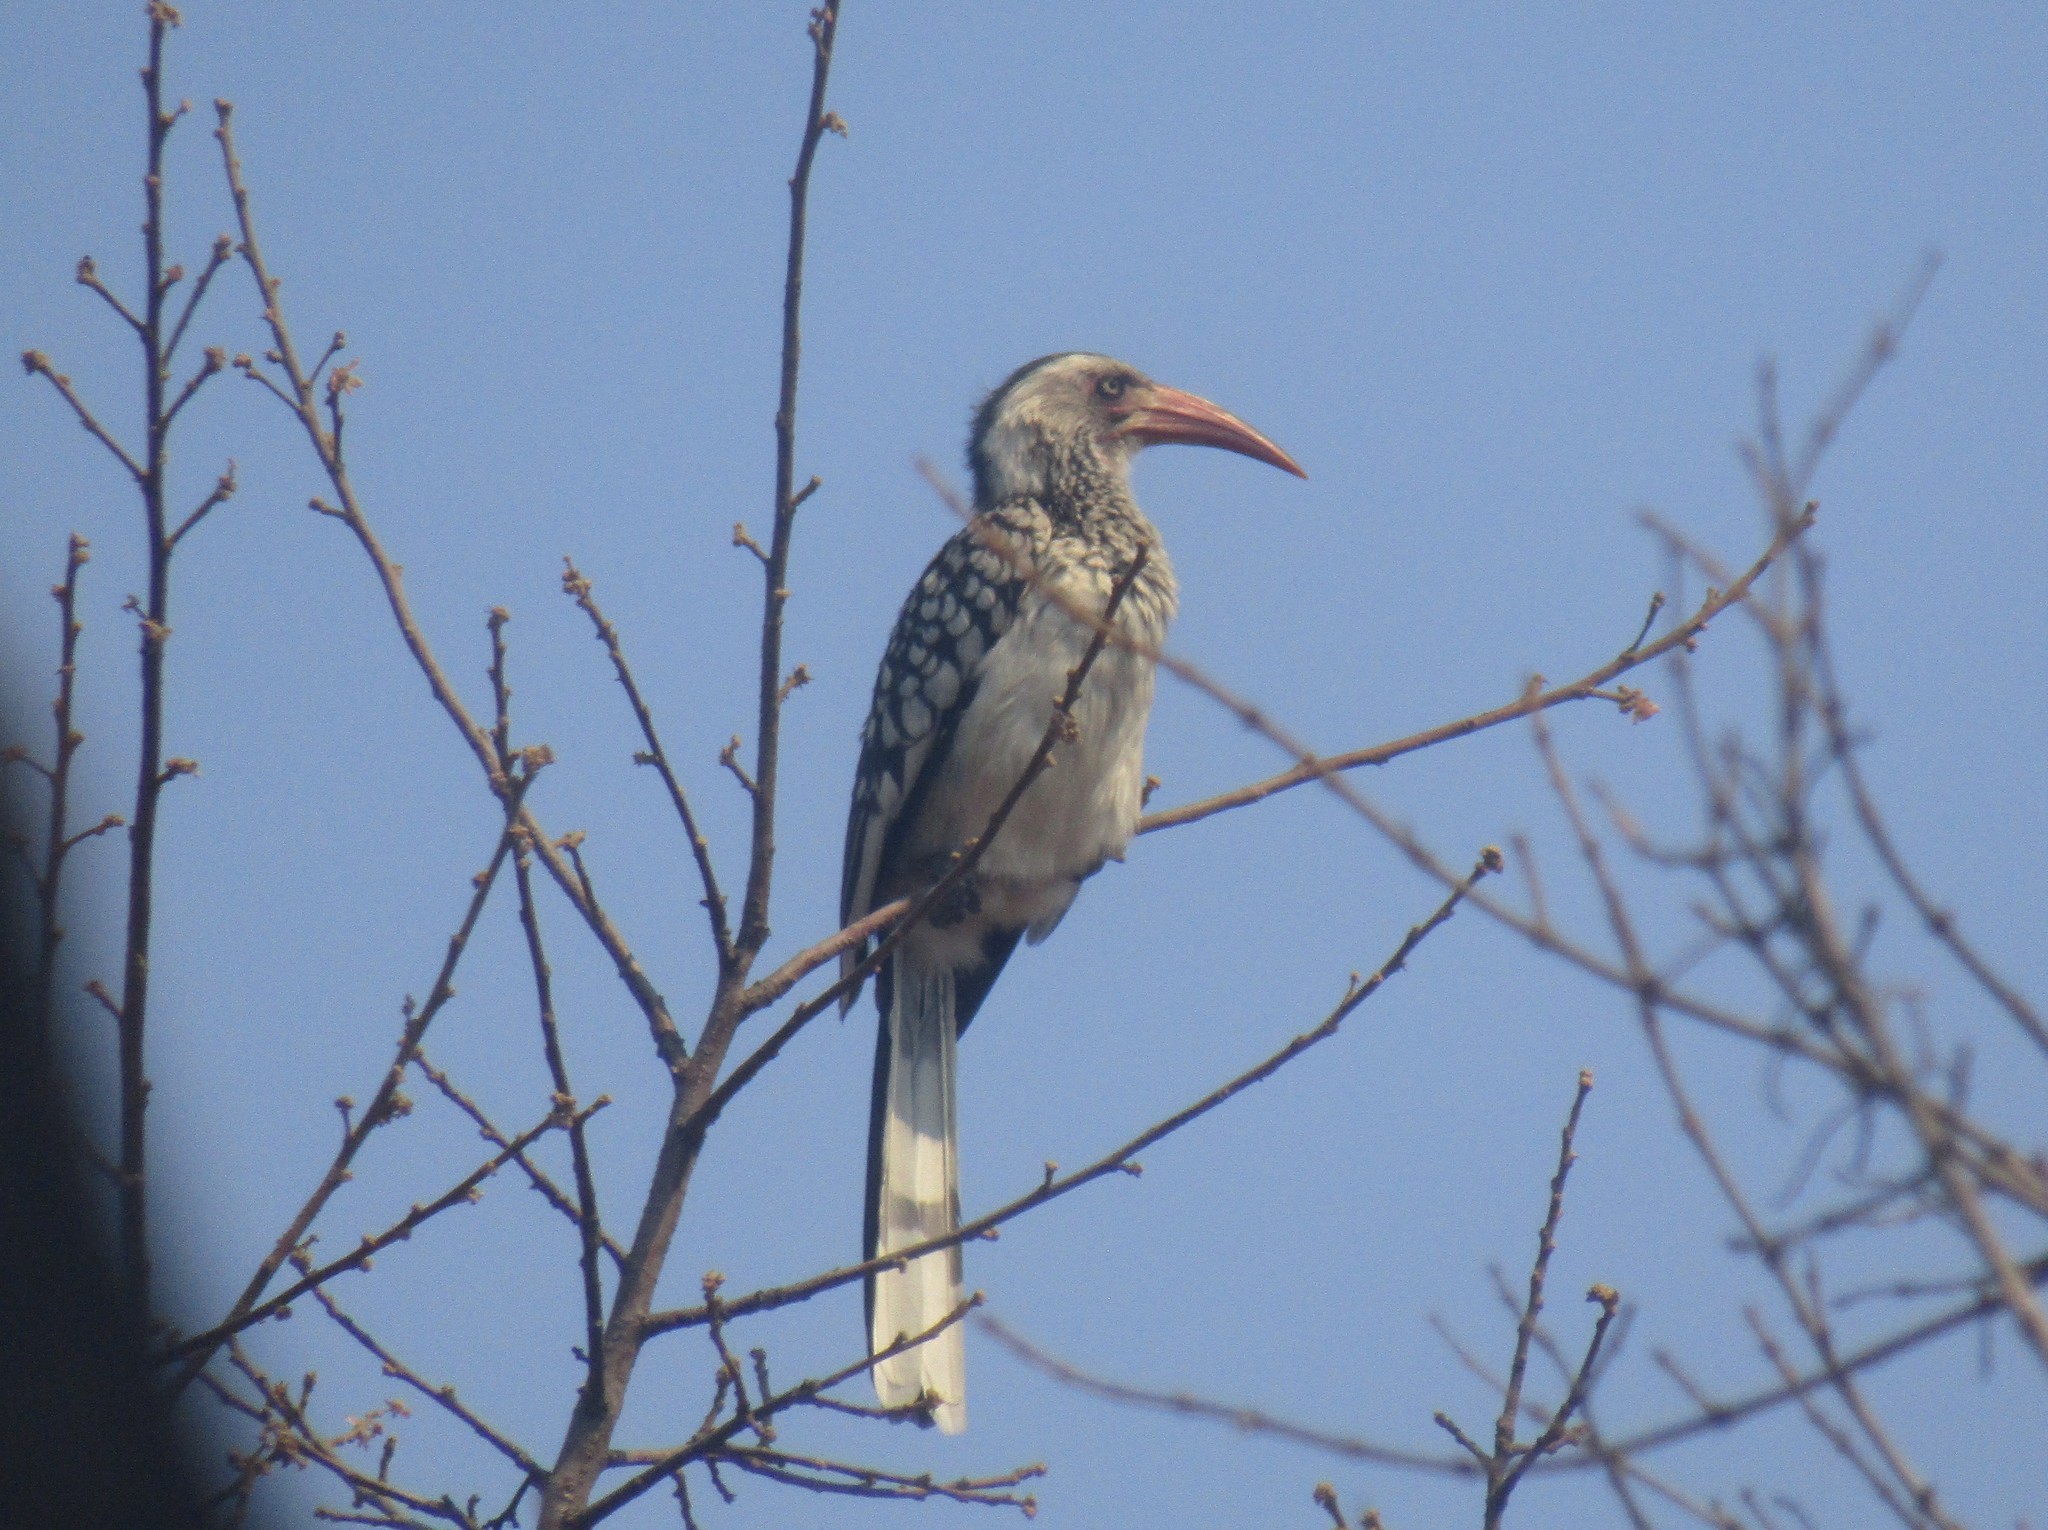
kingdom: Animalia
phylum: Chordata
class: Aves
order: Bucerotiformes
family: Bucerotidae
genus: Tockus
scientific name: Tockus rufirostris
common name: Southern red-billed hornbill
